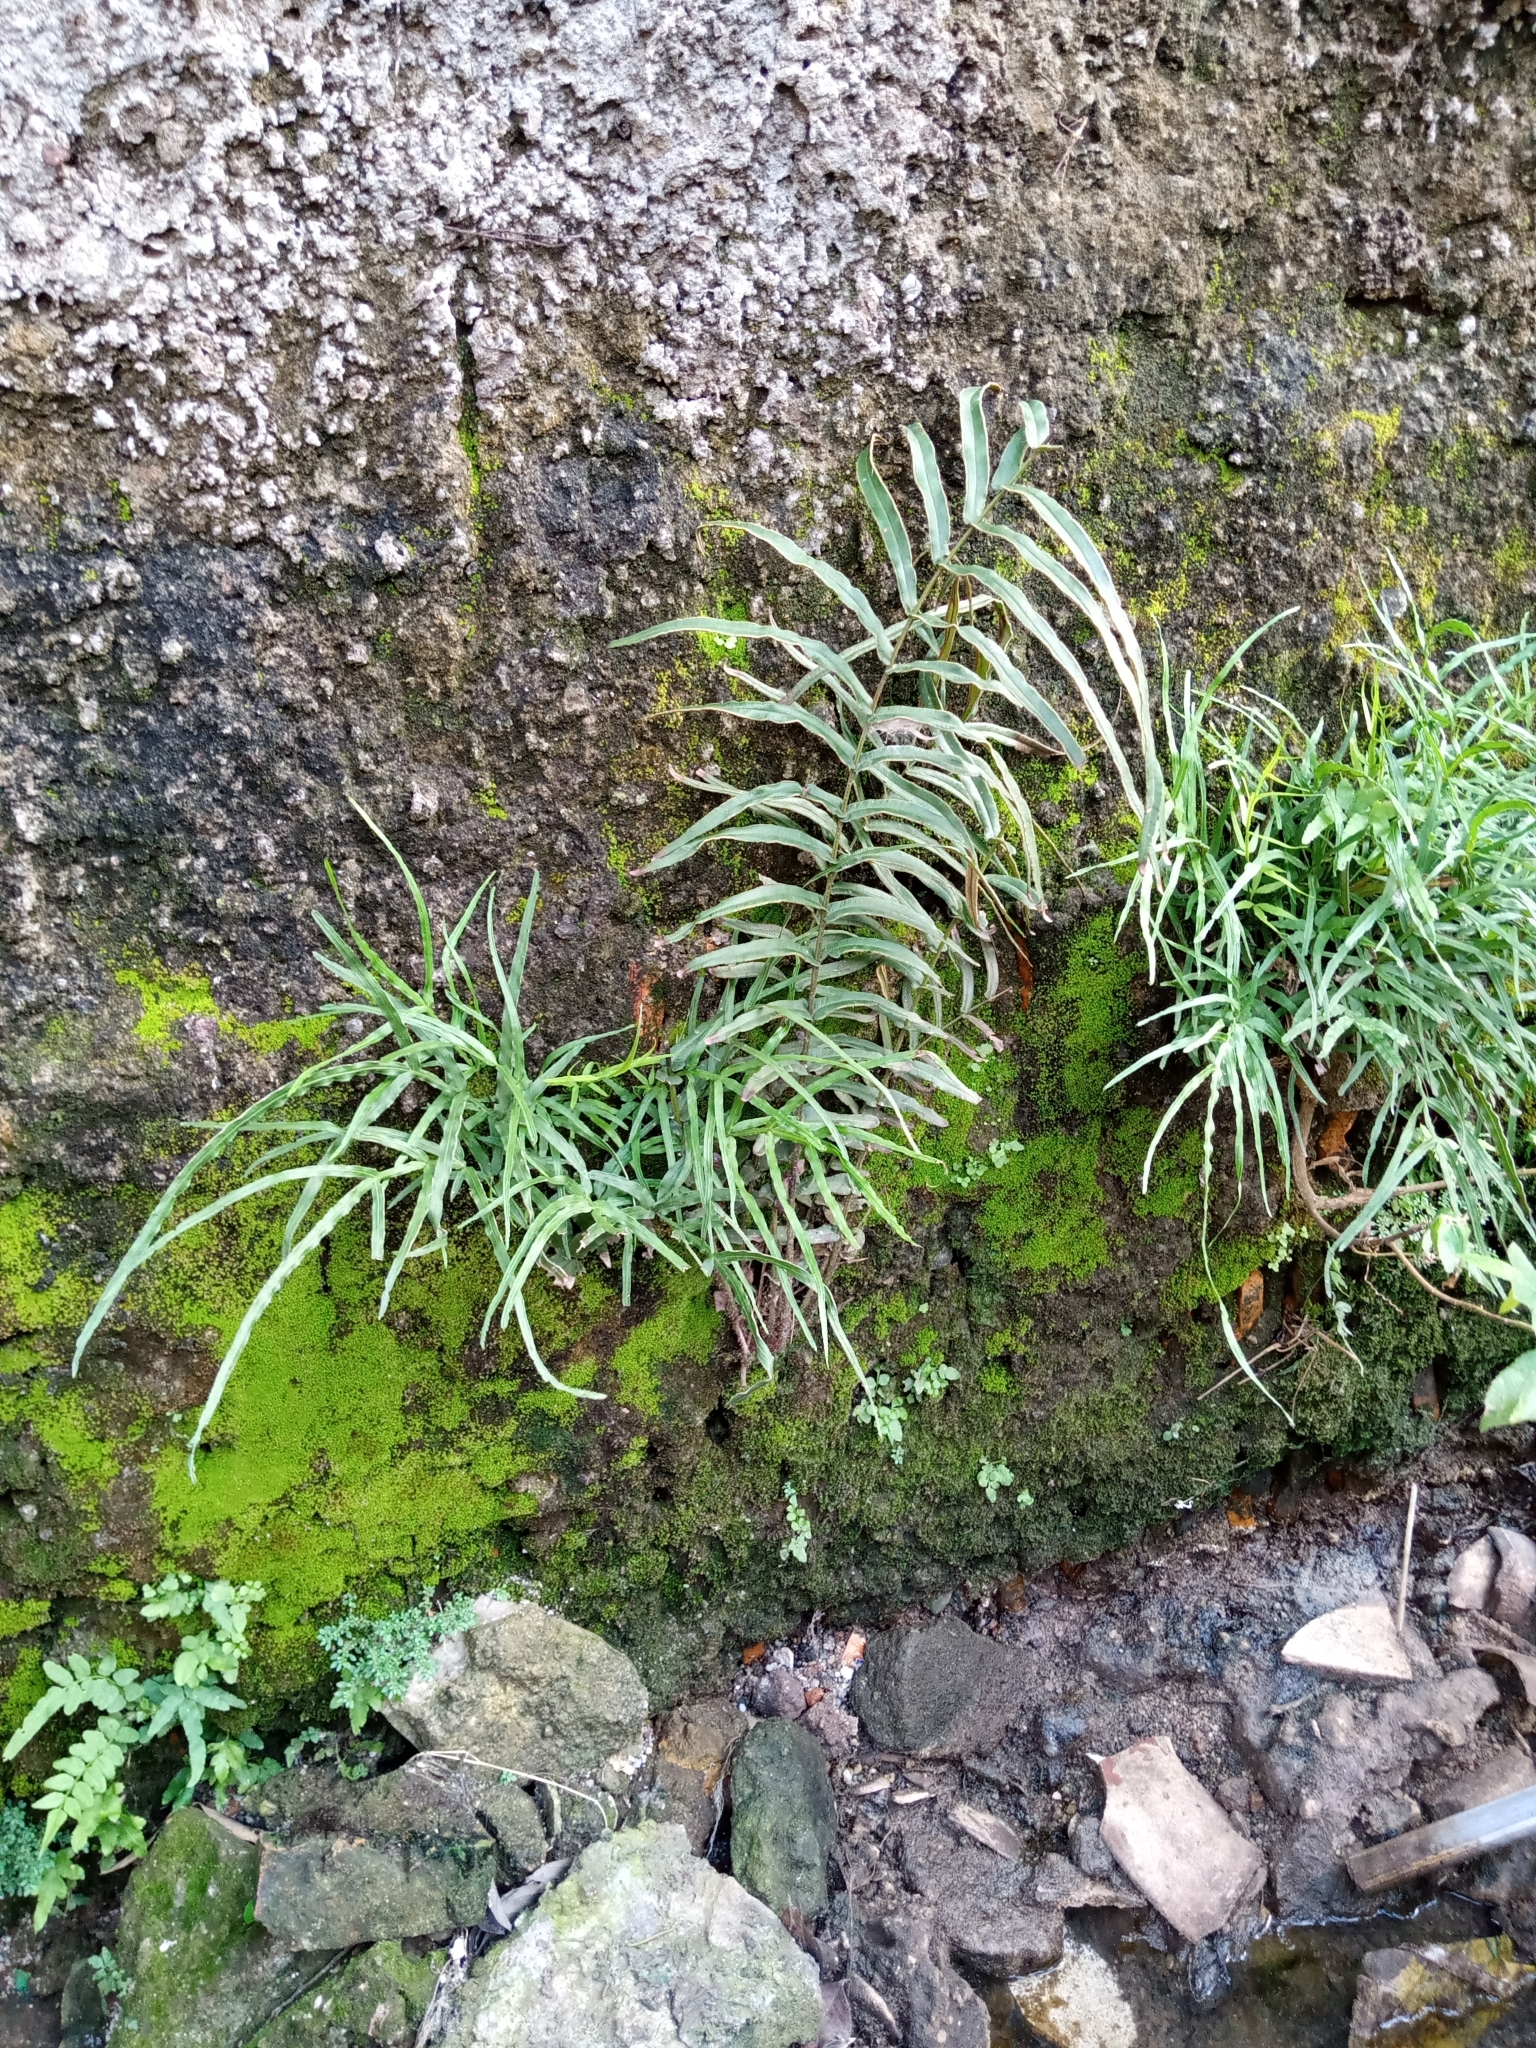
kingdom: Plantae
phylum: Tracheophyta
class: Polypodiopsida
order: Polypodiales
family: Pteridaceae
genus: Pteris
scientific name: Pteris vittata
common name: Ladder brake
